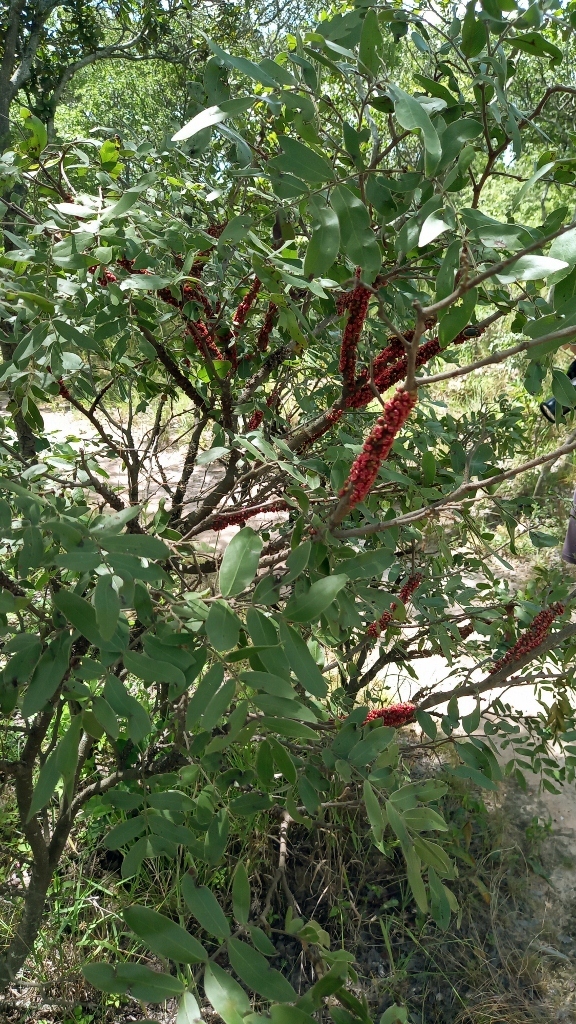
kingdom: Plantae
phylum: Tracheophyta
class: Magnoliopsida
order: Fabales
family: Fabaceae
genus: Julbernardia
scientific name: Julbernardia globiflora
